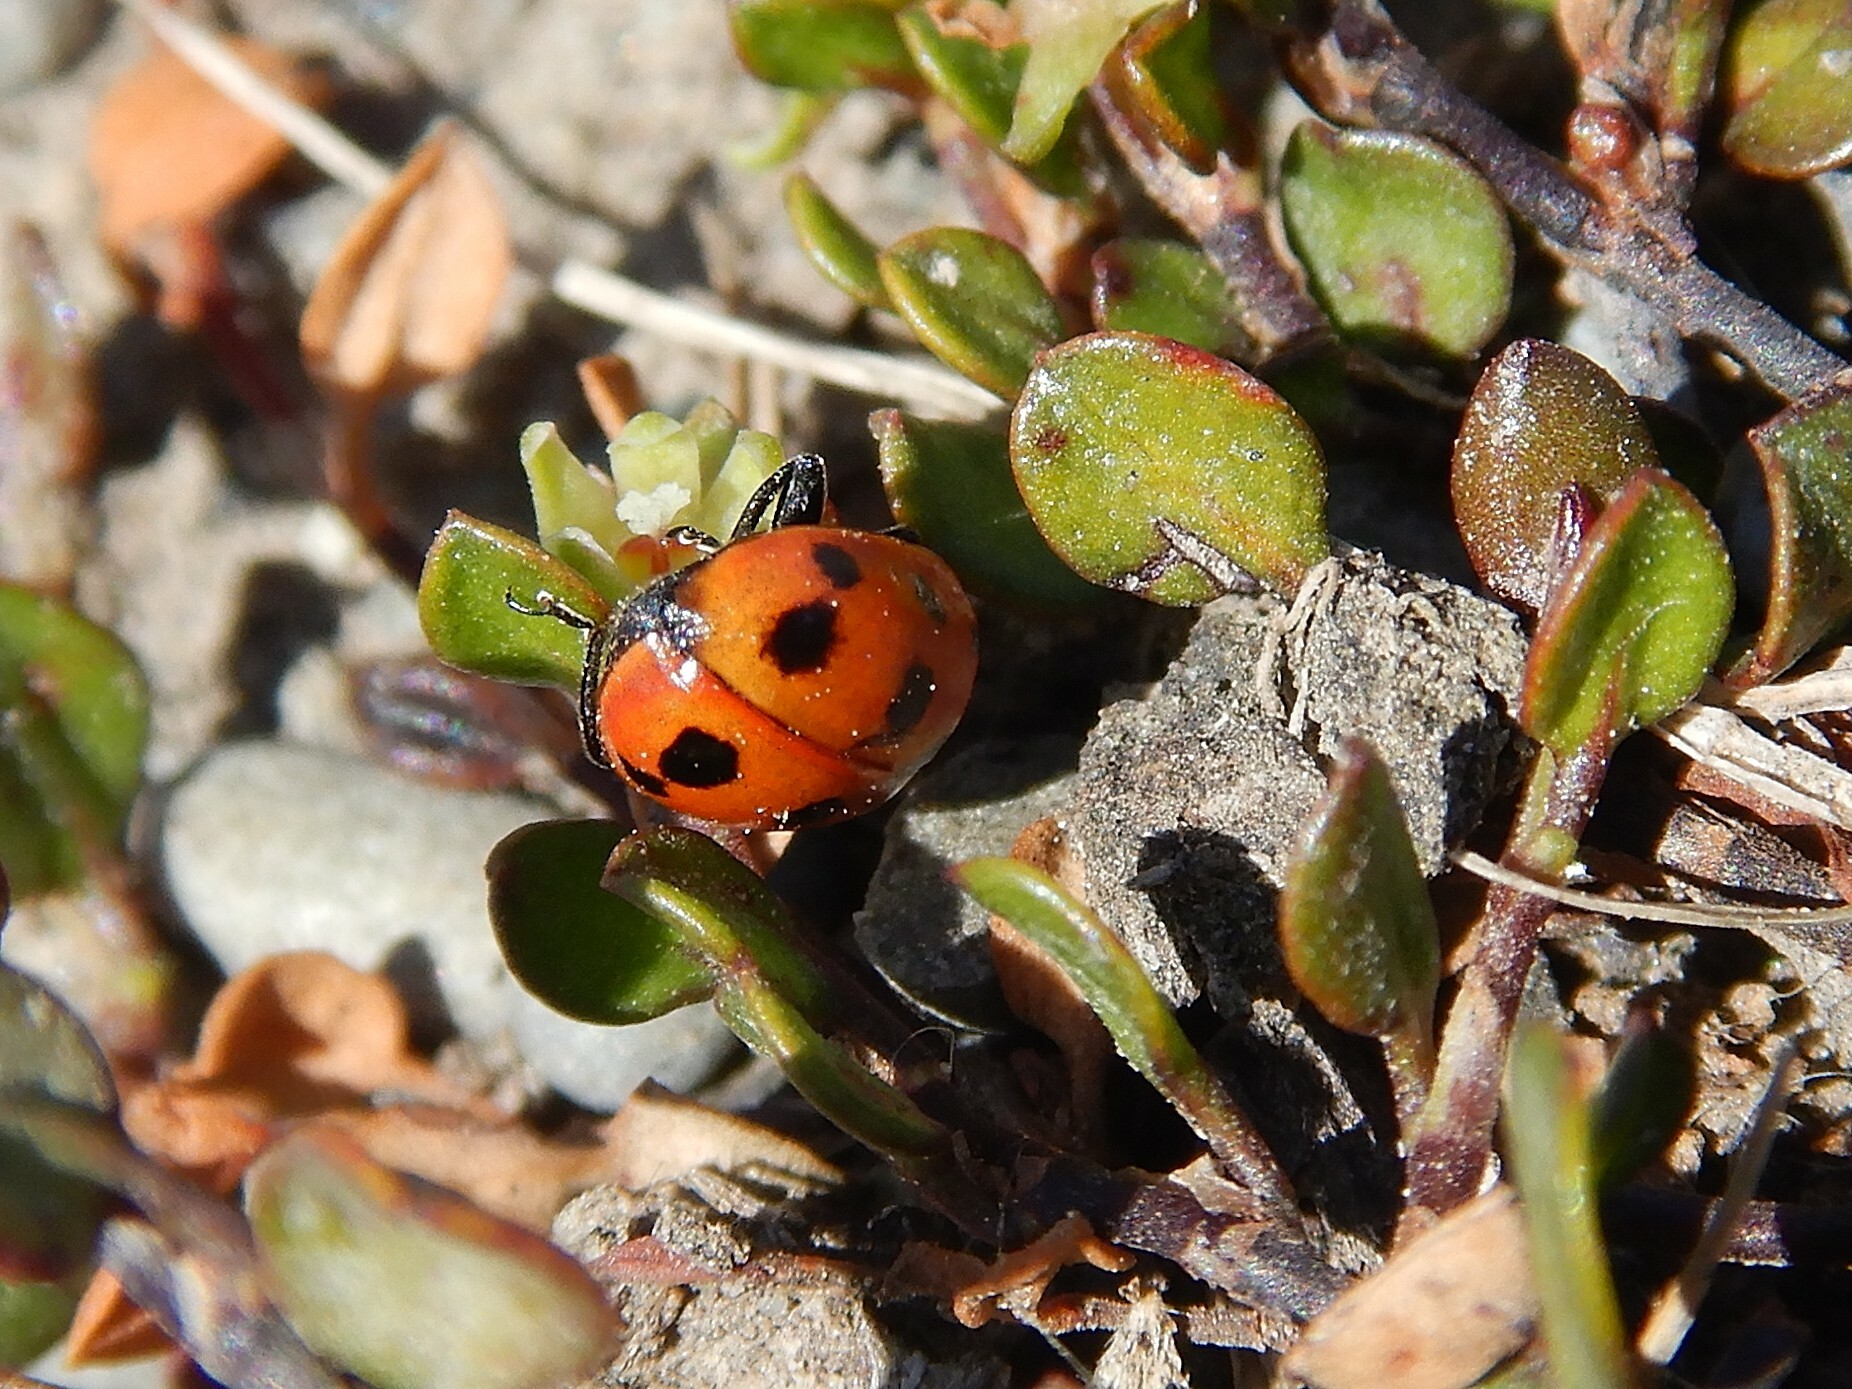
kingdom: Animalia
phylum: Arthropoda
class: Insecta
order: Coleoptera
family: Coccinellidae
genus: Coccinella
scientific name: Coccinella undecimpunctata
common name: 11-spot ladybird
